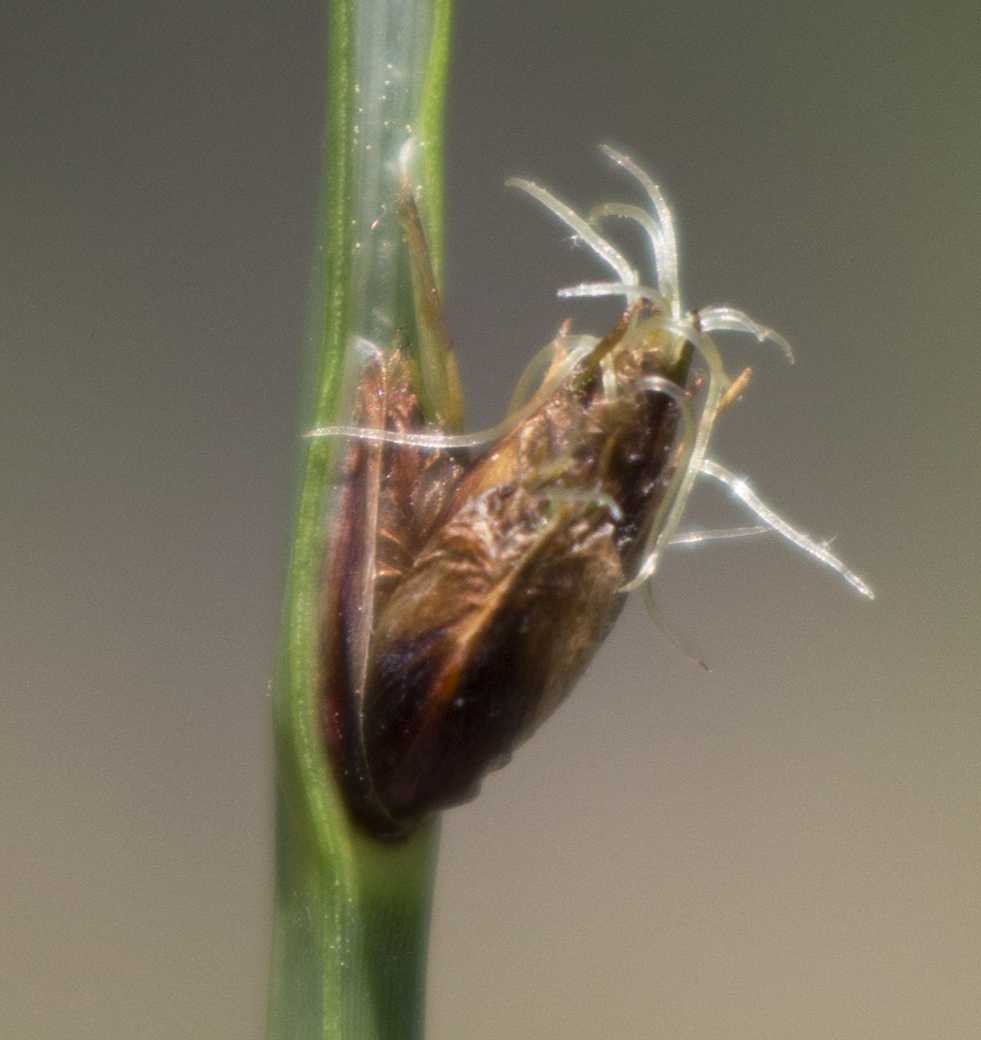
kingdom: Plantae
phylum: Tracheophyta
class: Liliopsida
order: Poales
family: Cyperaceae
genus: Schoenoplectus
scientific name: Schoenoplectus pungens
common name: Sharp club-rush
